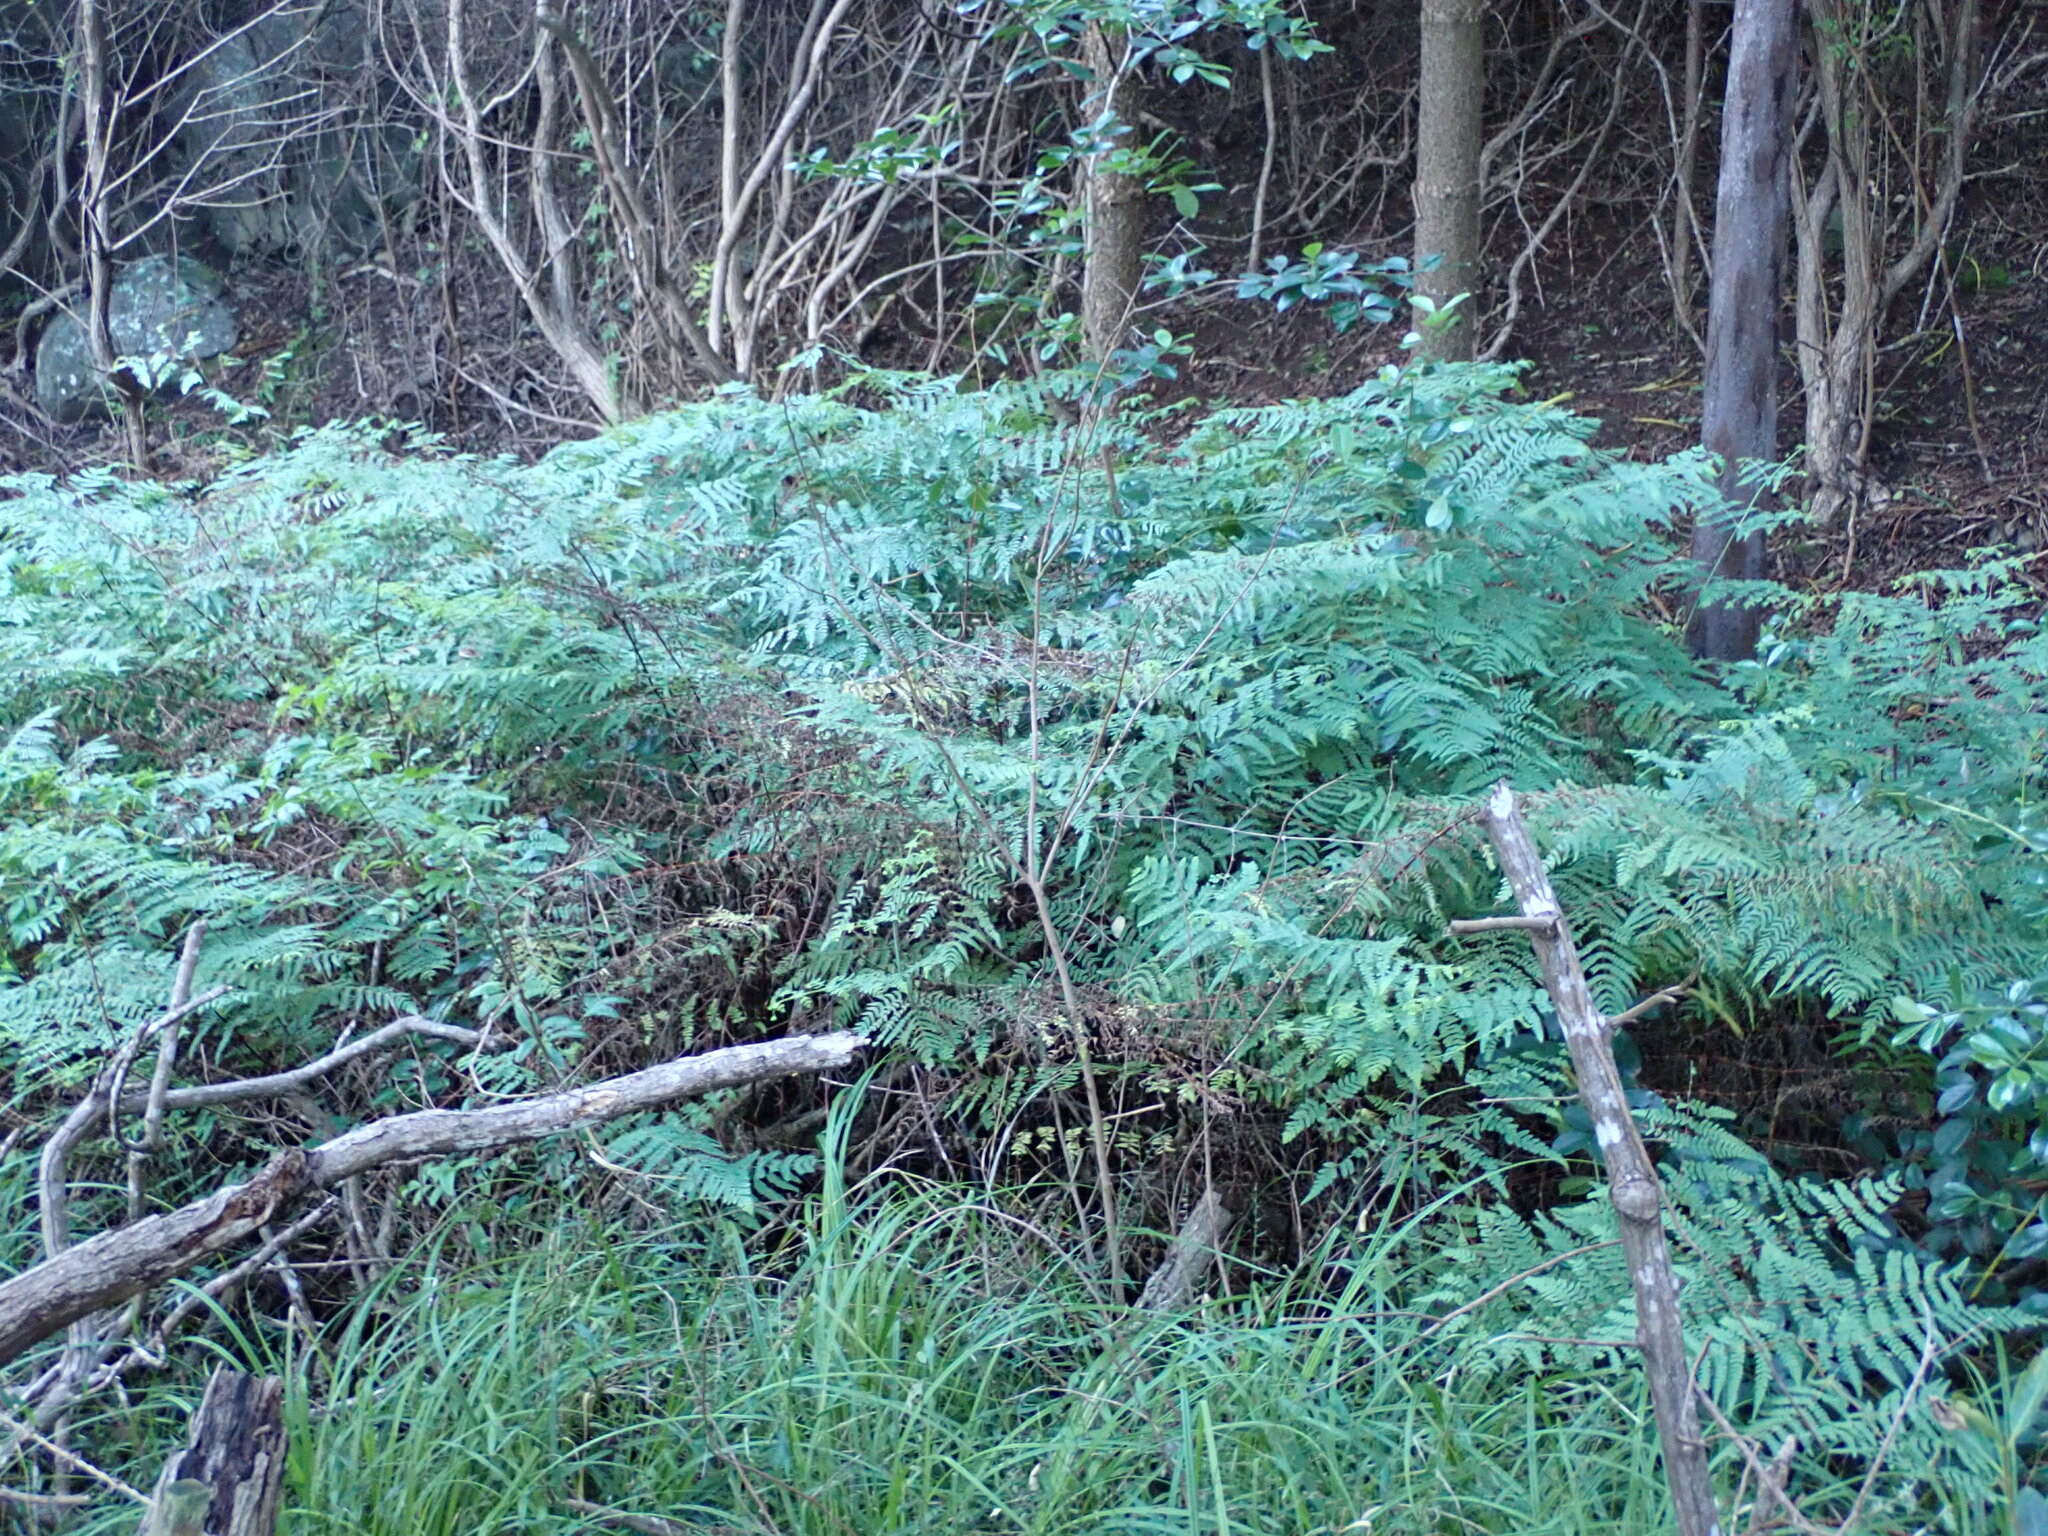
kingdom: Plantae
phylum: Tracheophyta
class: Polypodiopsida
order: Polypodiales
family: Dennstaedtiaceae
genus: Histiopteris
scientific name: Histiopteris incisa
